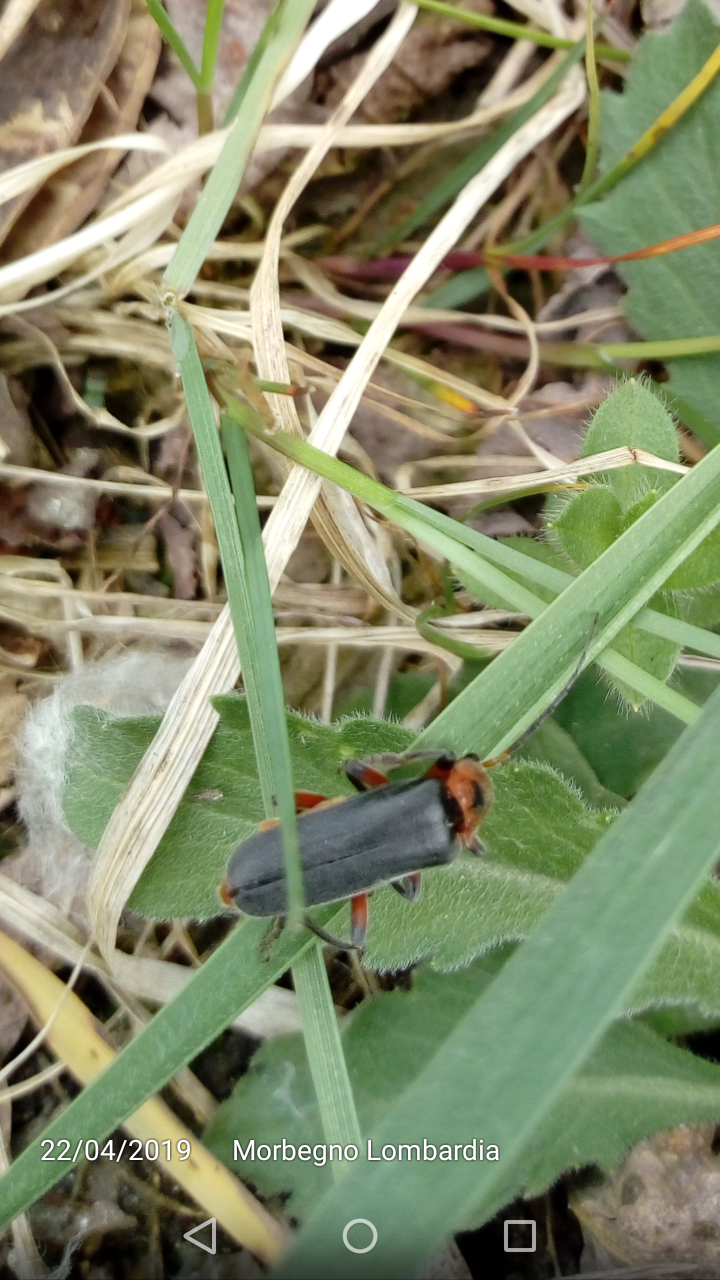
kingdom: Animalia
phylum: Arthropoda
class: Insecta
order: Coleoptera
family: Cantharidae
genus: Cantharis
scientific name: Cantharis rustica
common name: Soldier beetle
